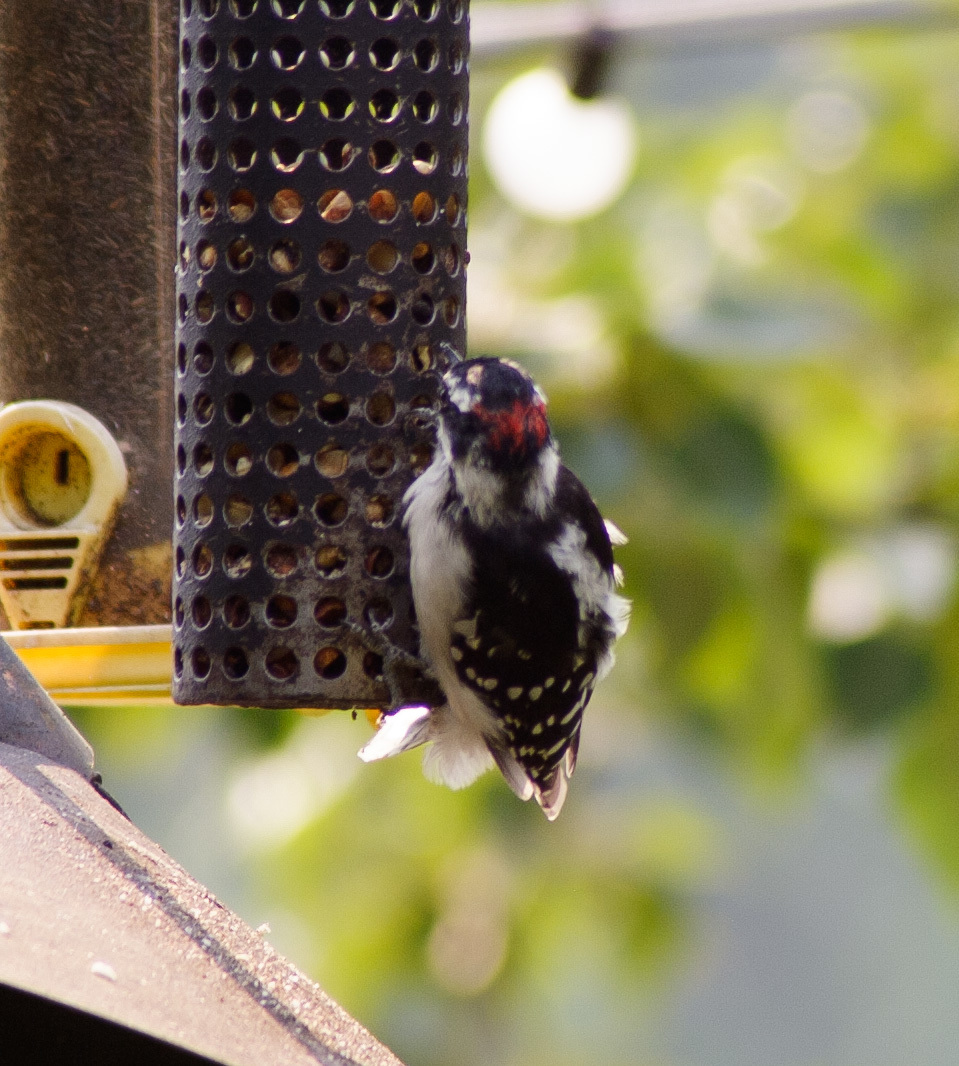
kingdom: Animalia
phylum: Chordata
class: Aves
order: Piciformes
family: Picidae
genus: Dryobates
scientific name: Dryobates pubescens
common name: Downy woodpecker
